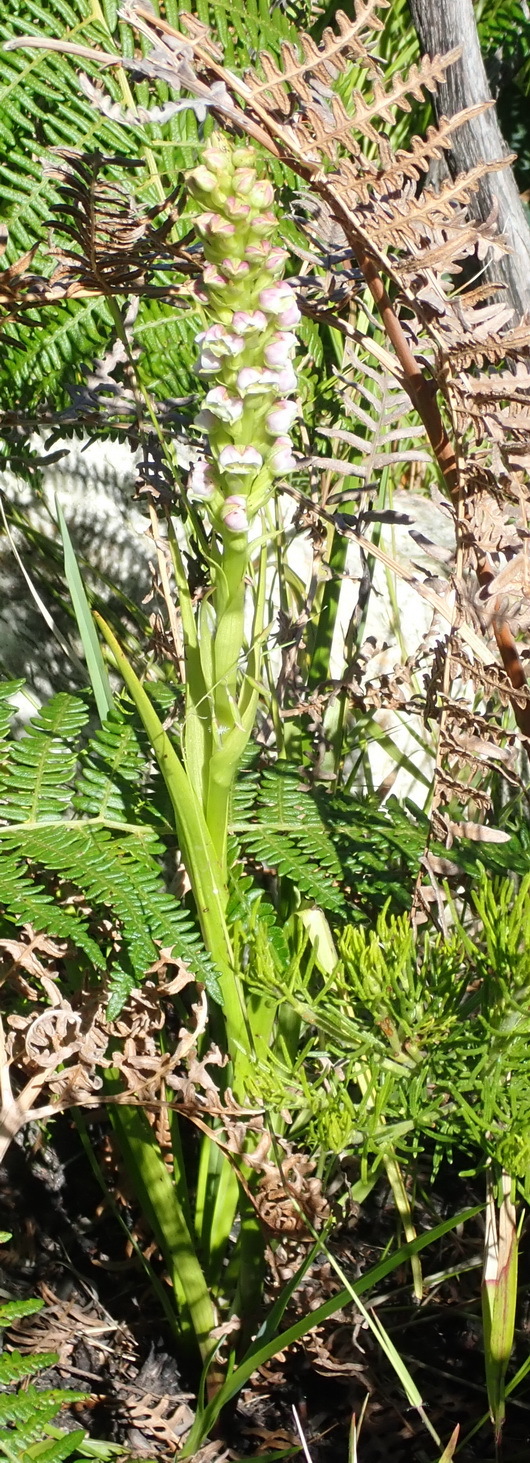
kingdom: Plantae
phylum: Tracheophyta
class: Liliopsida
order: Asparagales
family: Orchidaceae
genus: Evotella
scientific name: Evotella carnosa
